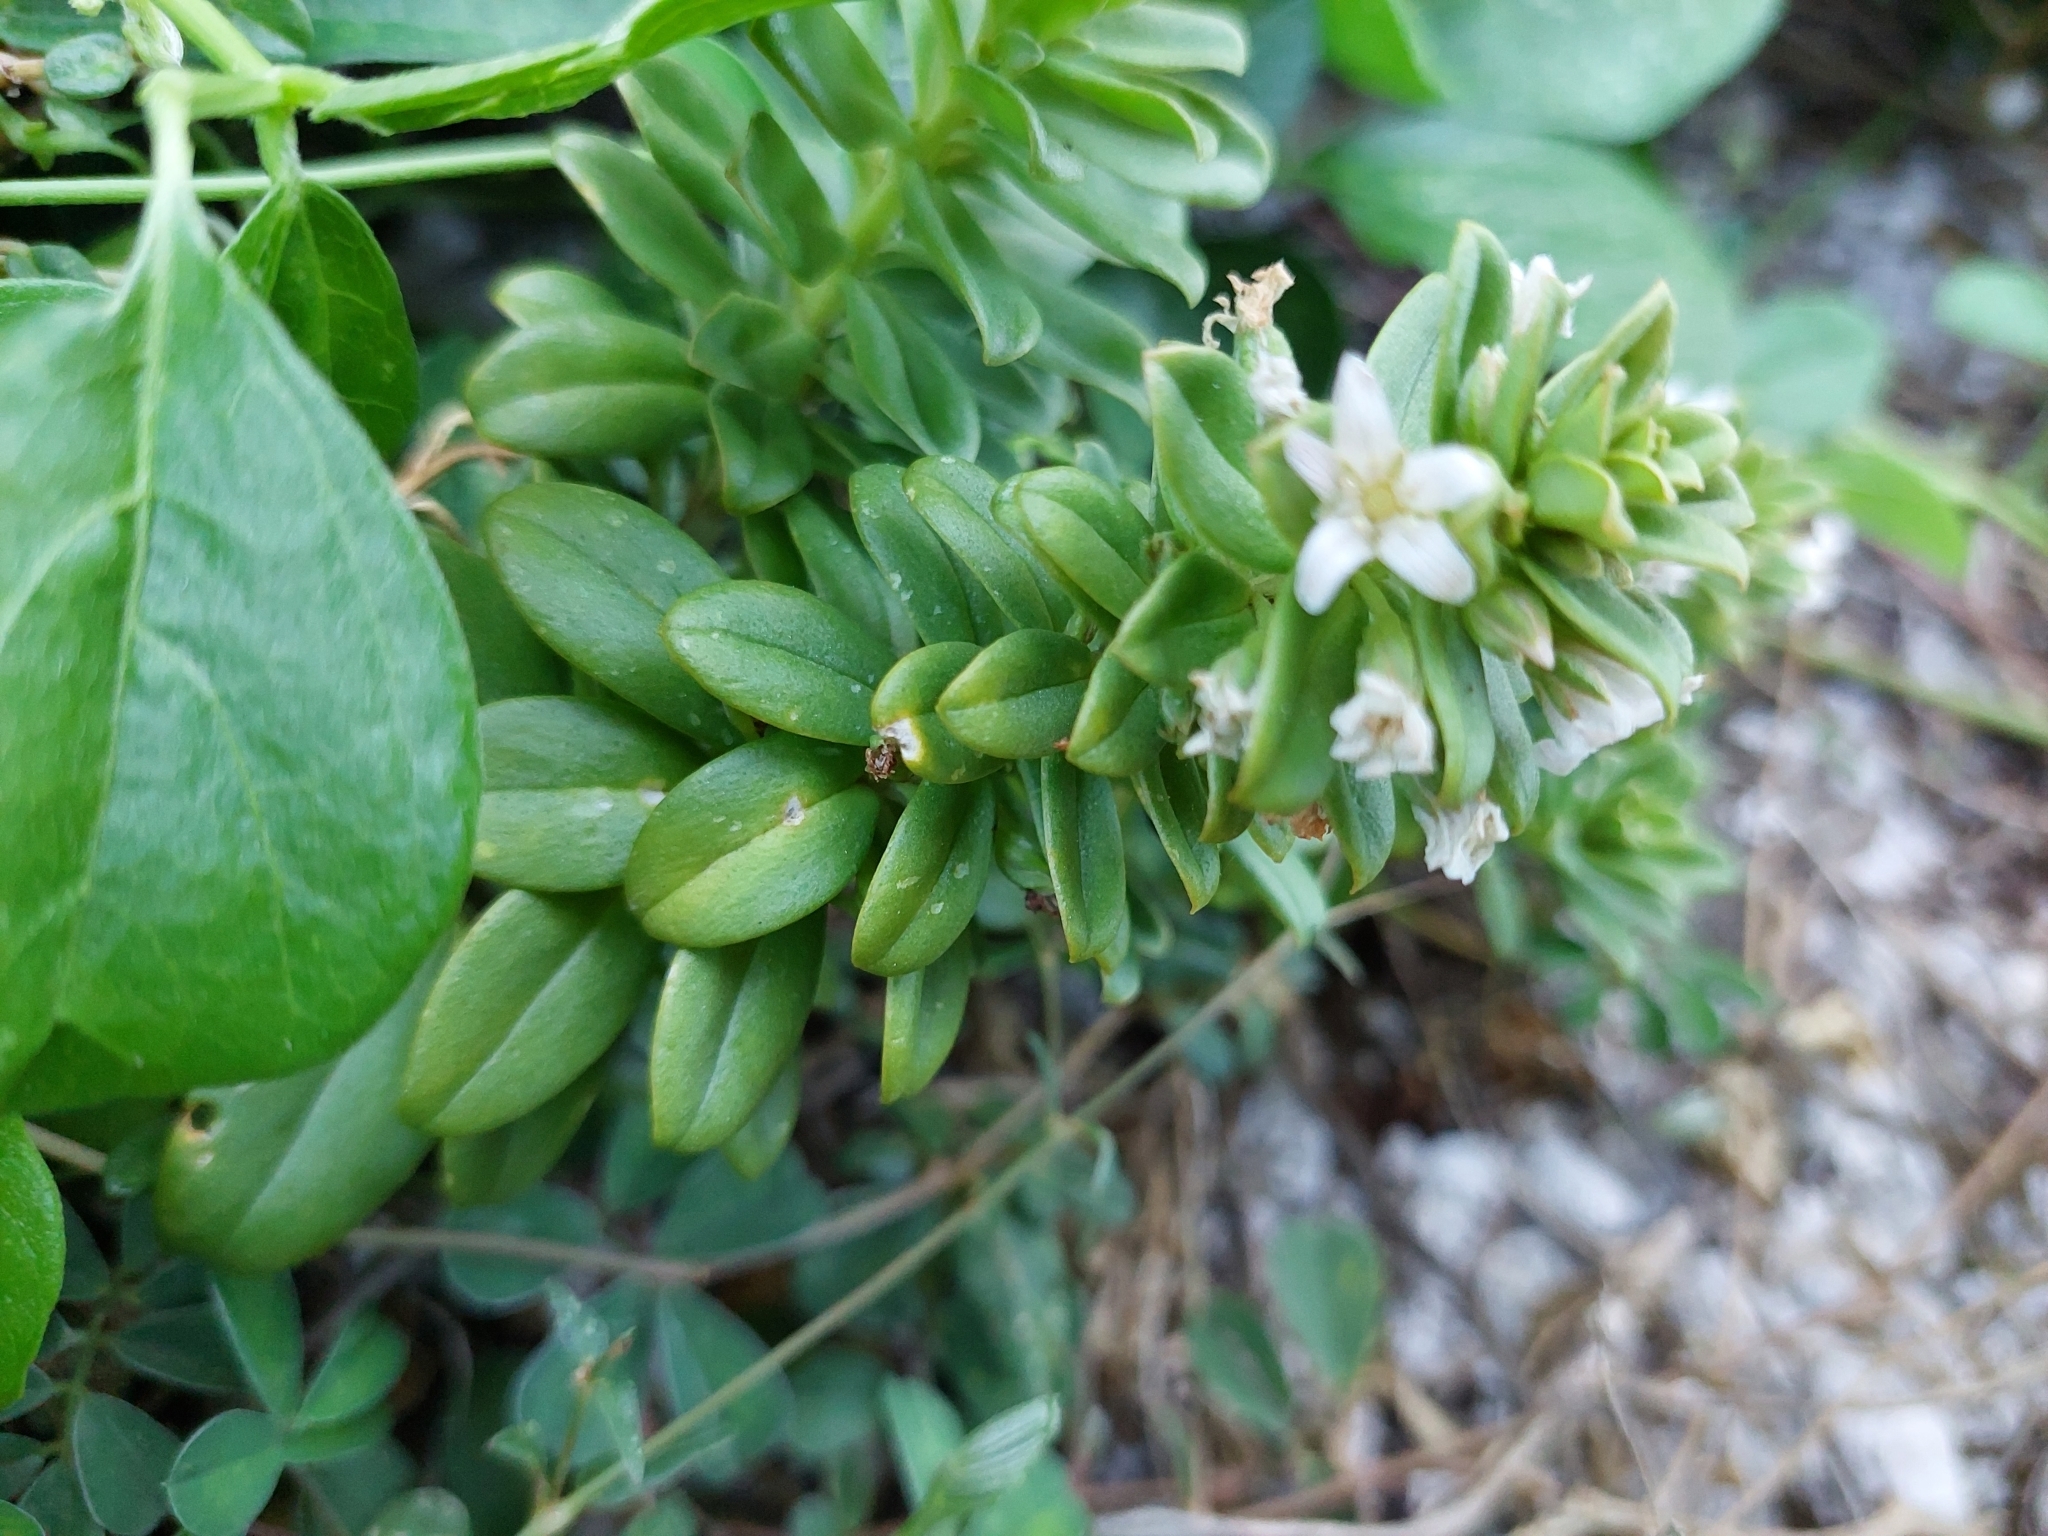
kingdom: Plantae
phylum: Tracheophyta
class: Magnoliopsida
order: Ericales
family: Primulaceae
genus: Lysimachia
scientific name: Lysimachia mauritiana
